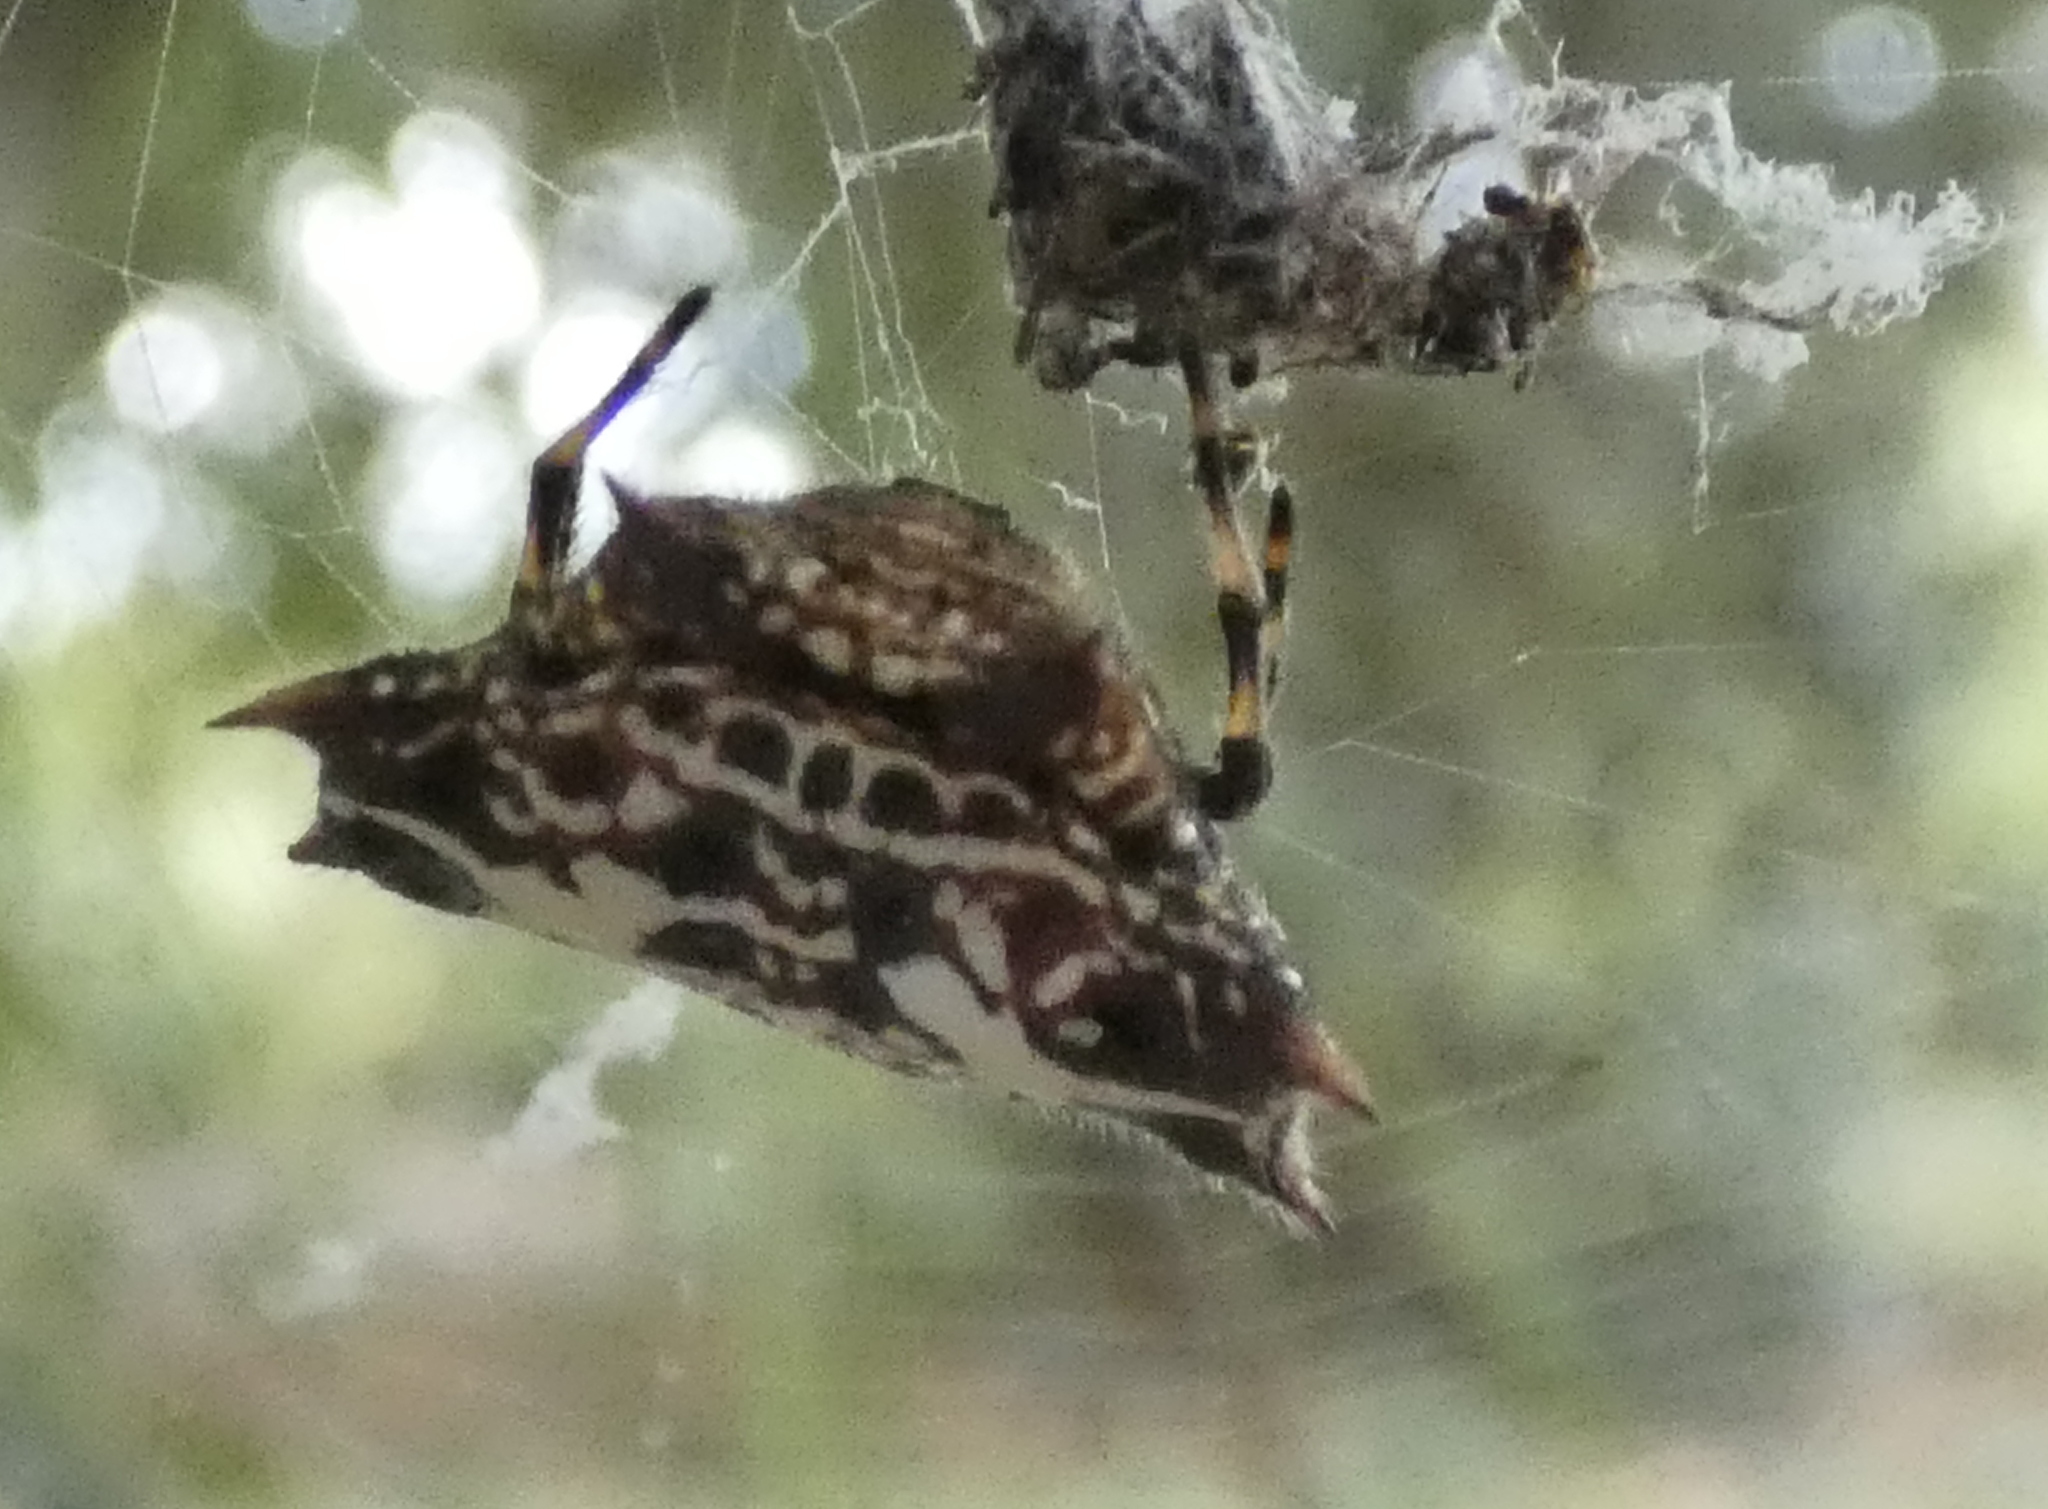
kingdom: Animalia
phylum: Arthropoda
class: Arachnida
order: Araneae
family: Araneidae
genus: Gasteracantha
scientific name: Gasteracantha cancriformis
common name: Orb weavers
